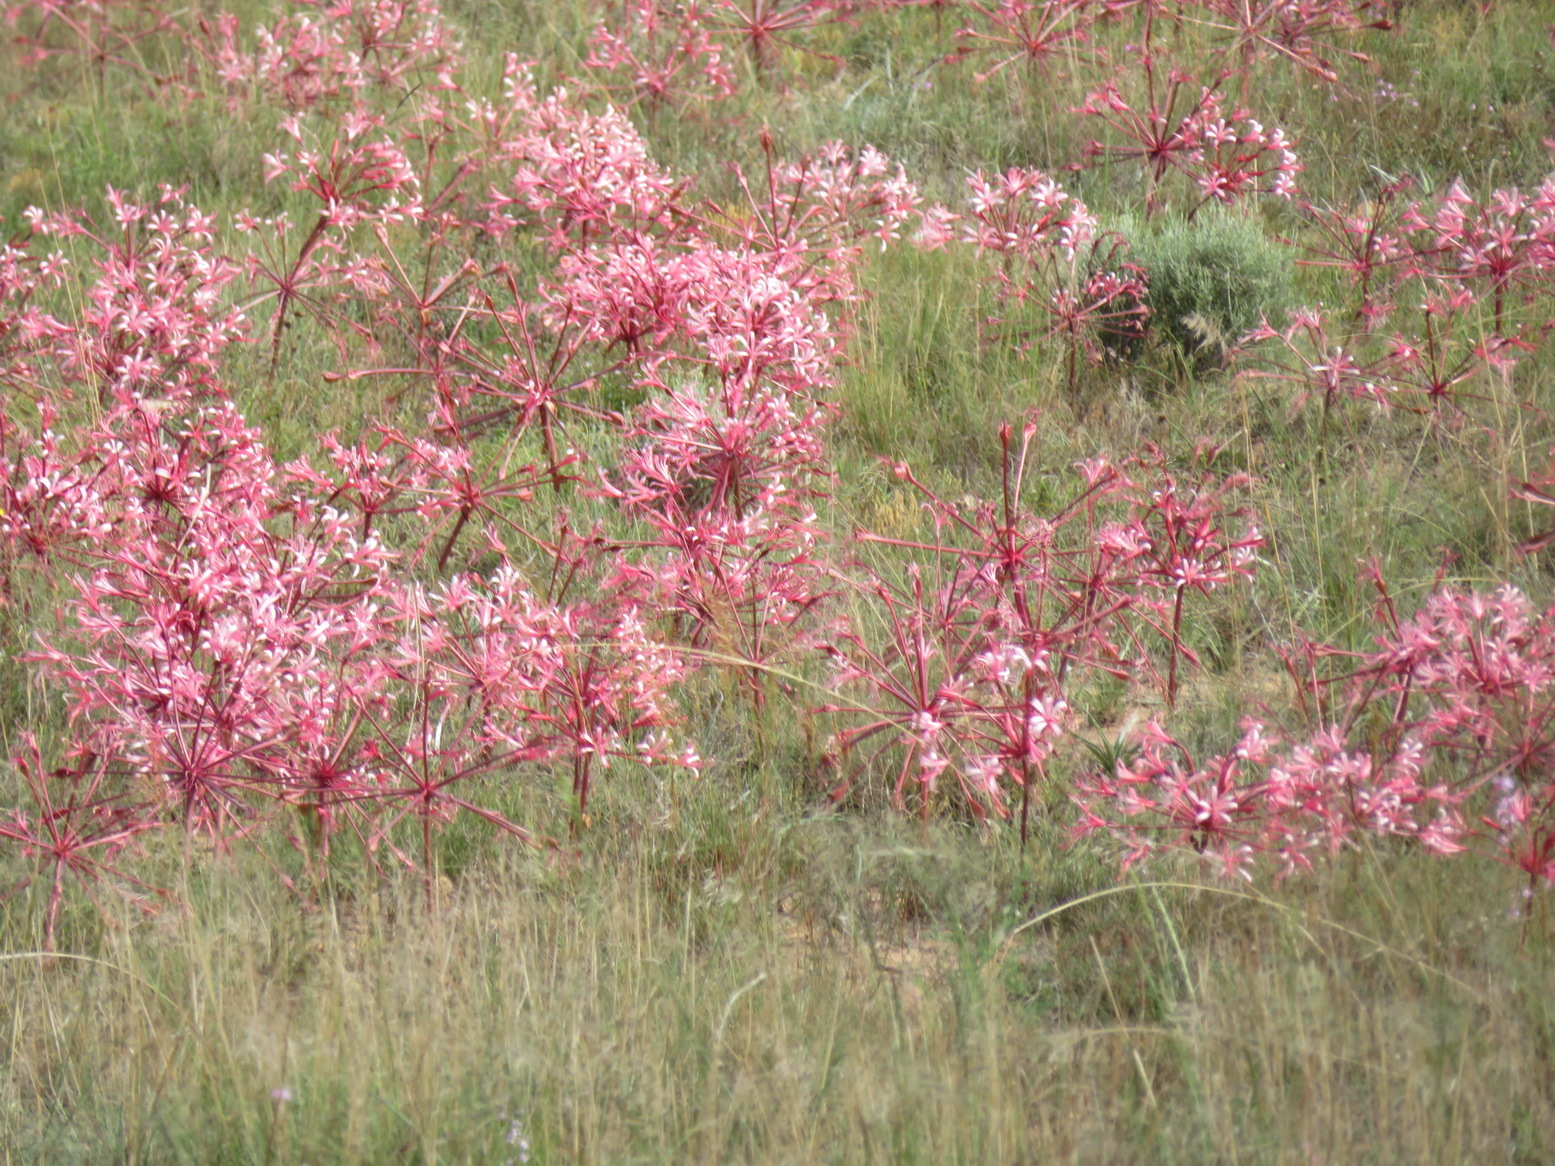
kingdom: Plantae
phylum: Tracheophyta
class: Liliopsida
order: Asparagales
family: Amaryllidaceae
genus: Brunsvigia
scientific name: Brunsvigia gregaria
